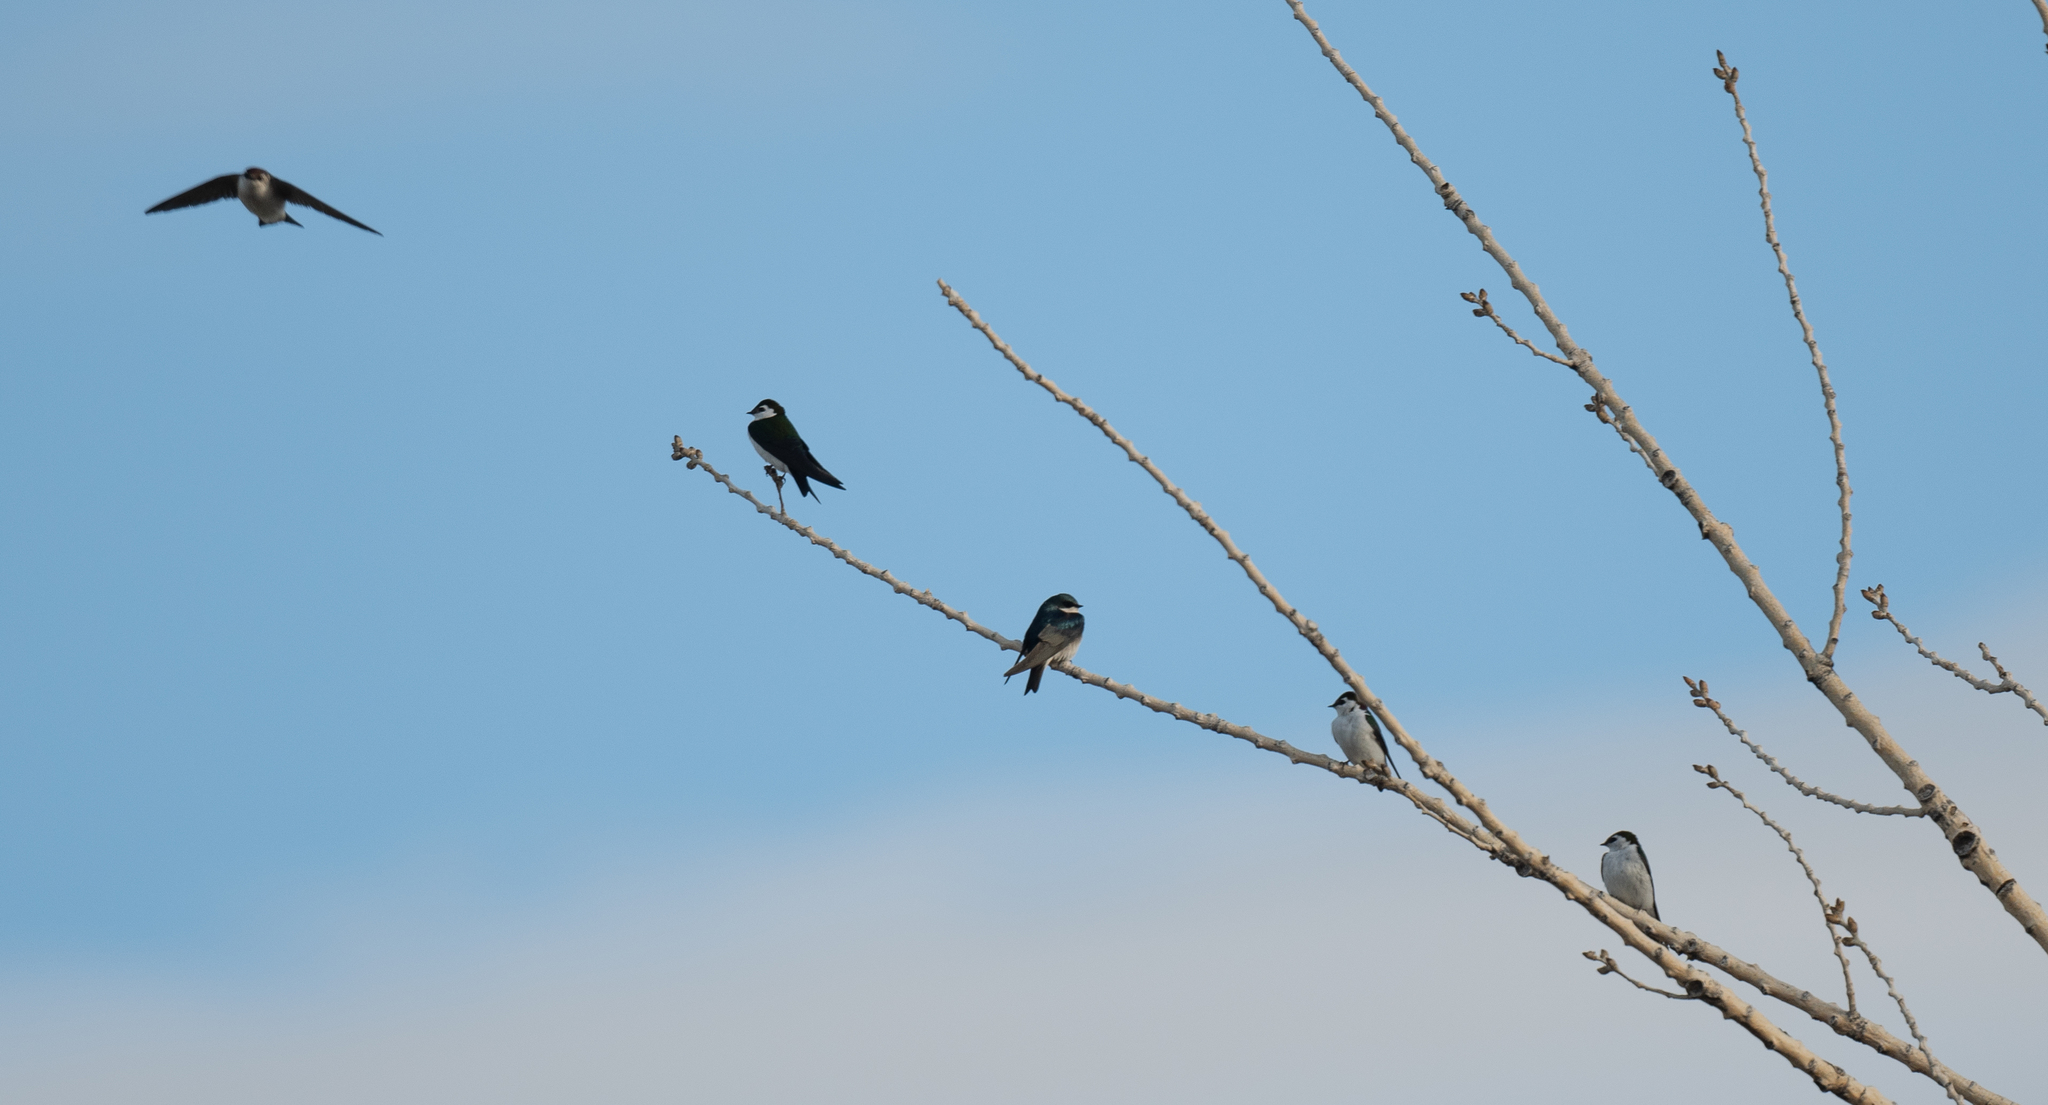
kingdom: Animalia
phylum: Chordata
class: Aves
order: Passeriformes
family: Hirundinidae
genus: Tachycineta
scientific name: Tachycineta thalassina
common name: Violet-green swallow
